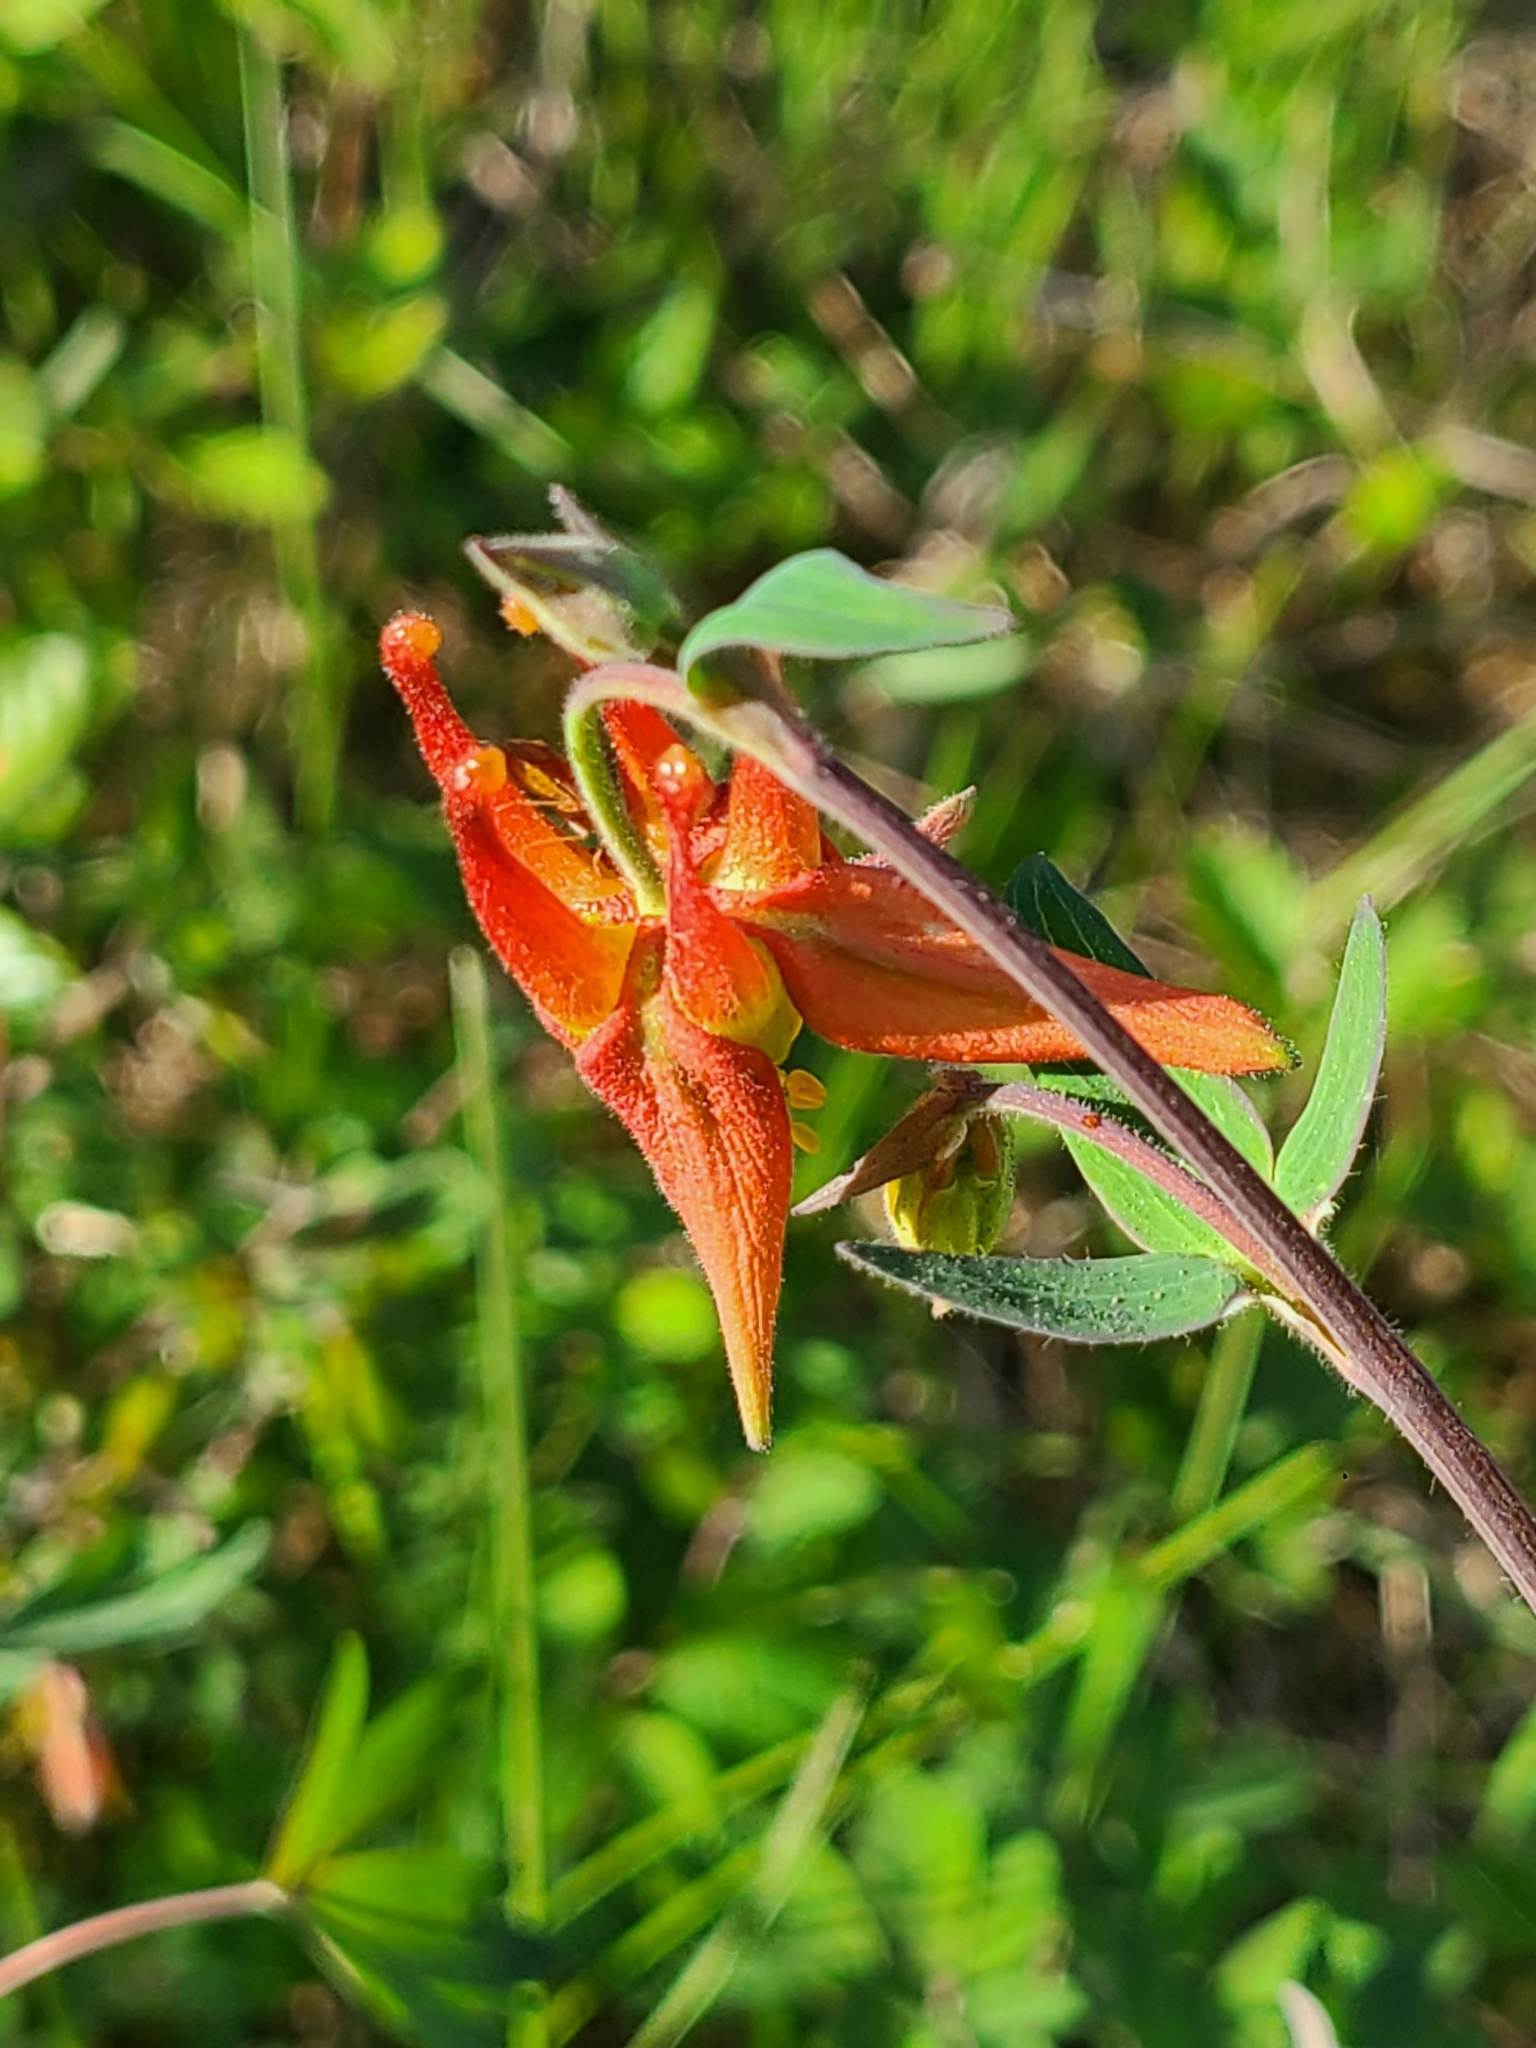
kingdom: Plantae
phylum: Tracheophyta
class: Magnoliopsida
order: Ranunculales
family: Ranunculaceae
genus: Aquilegia
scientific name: Aquilegia formosa
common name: Sitka columbine
